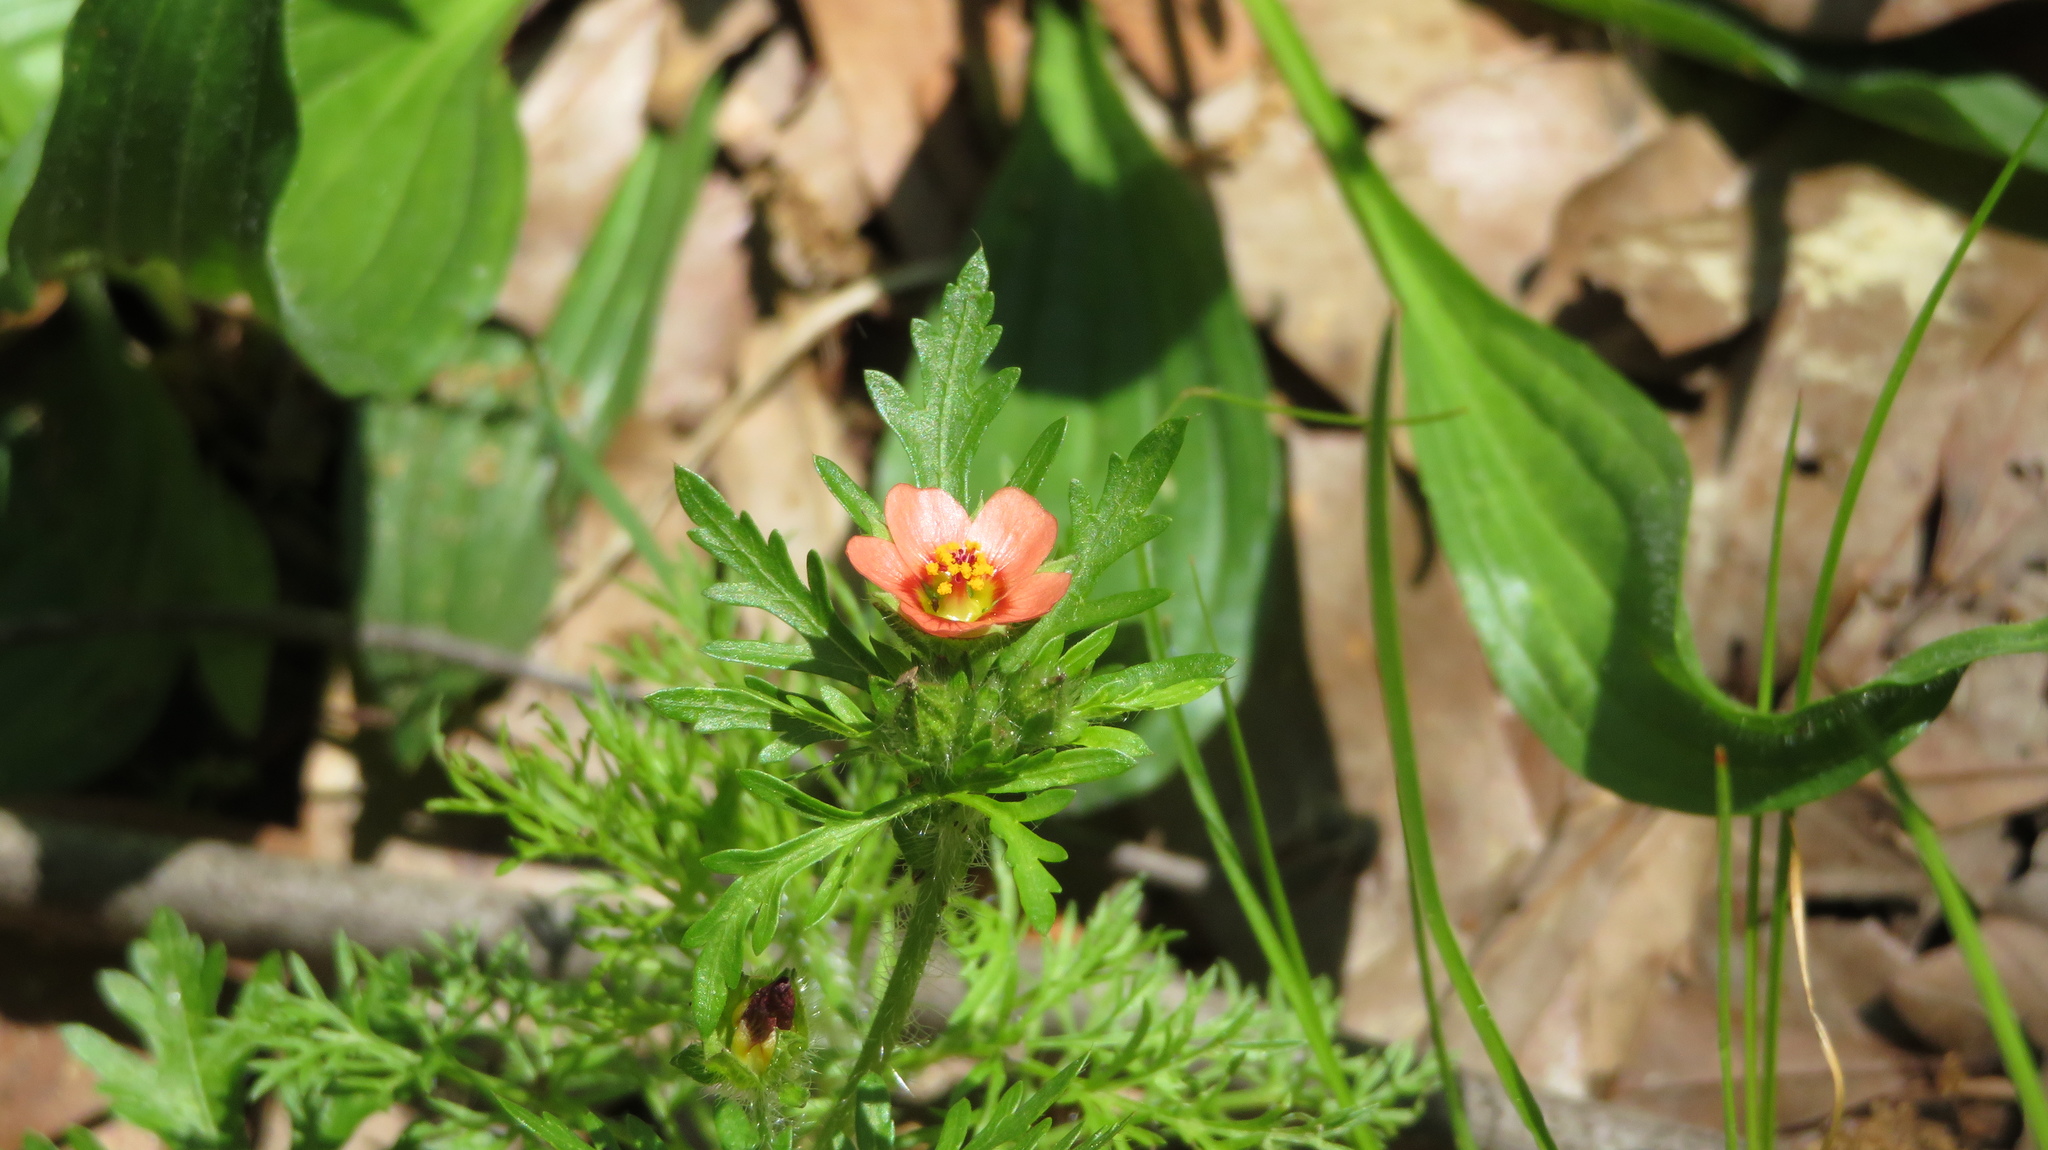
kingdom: Plantae
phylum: Tracheophyta
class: Magnoliopsida
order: Malvales
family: Malvaceae
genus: Modiola
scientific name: Modiola caroliniana
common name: Carolina bristlemallow
